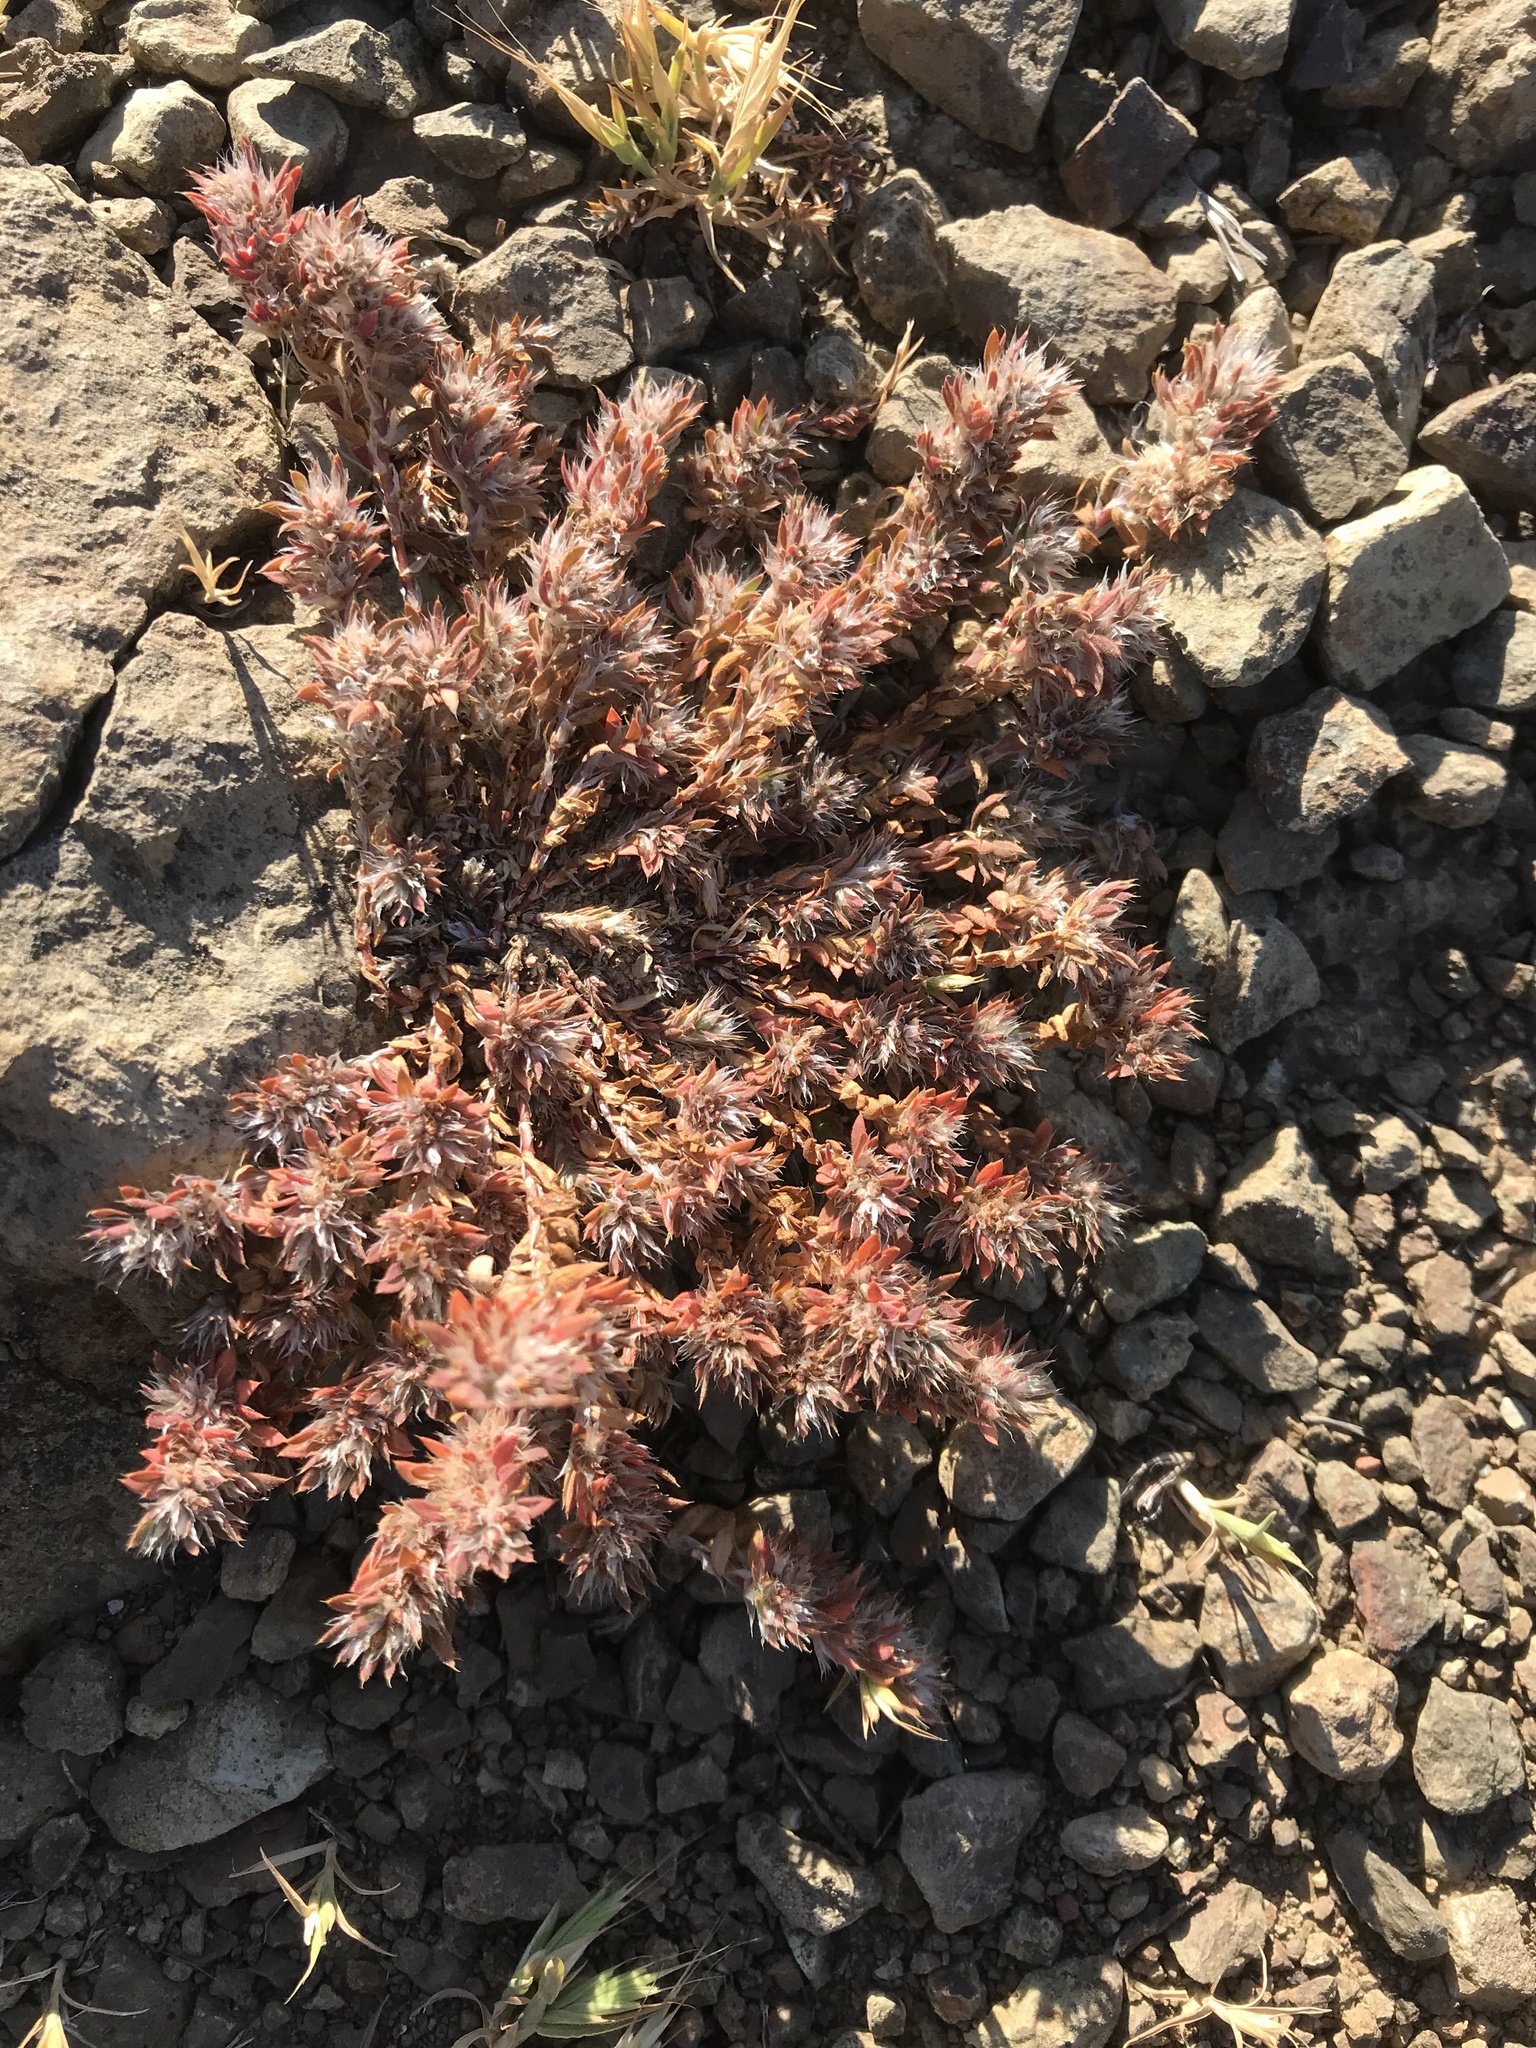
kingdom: Plantae
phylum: Tracheophyta
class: Magnoliopsida
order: Caryophyllales
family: Caryophyllaceae
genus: Paronychia
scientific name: Paronychia franciscana
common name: San francisco nailwort
